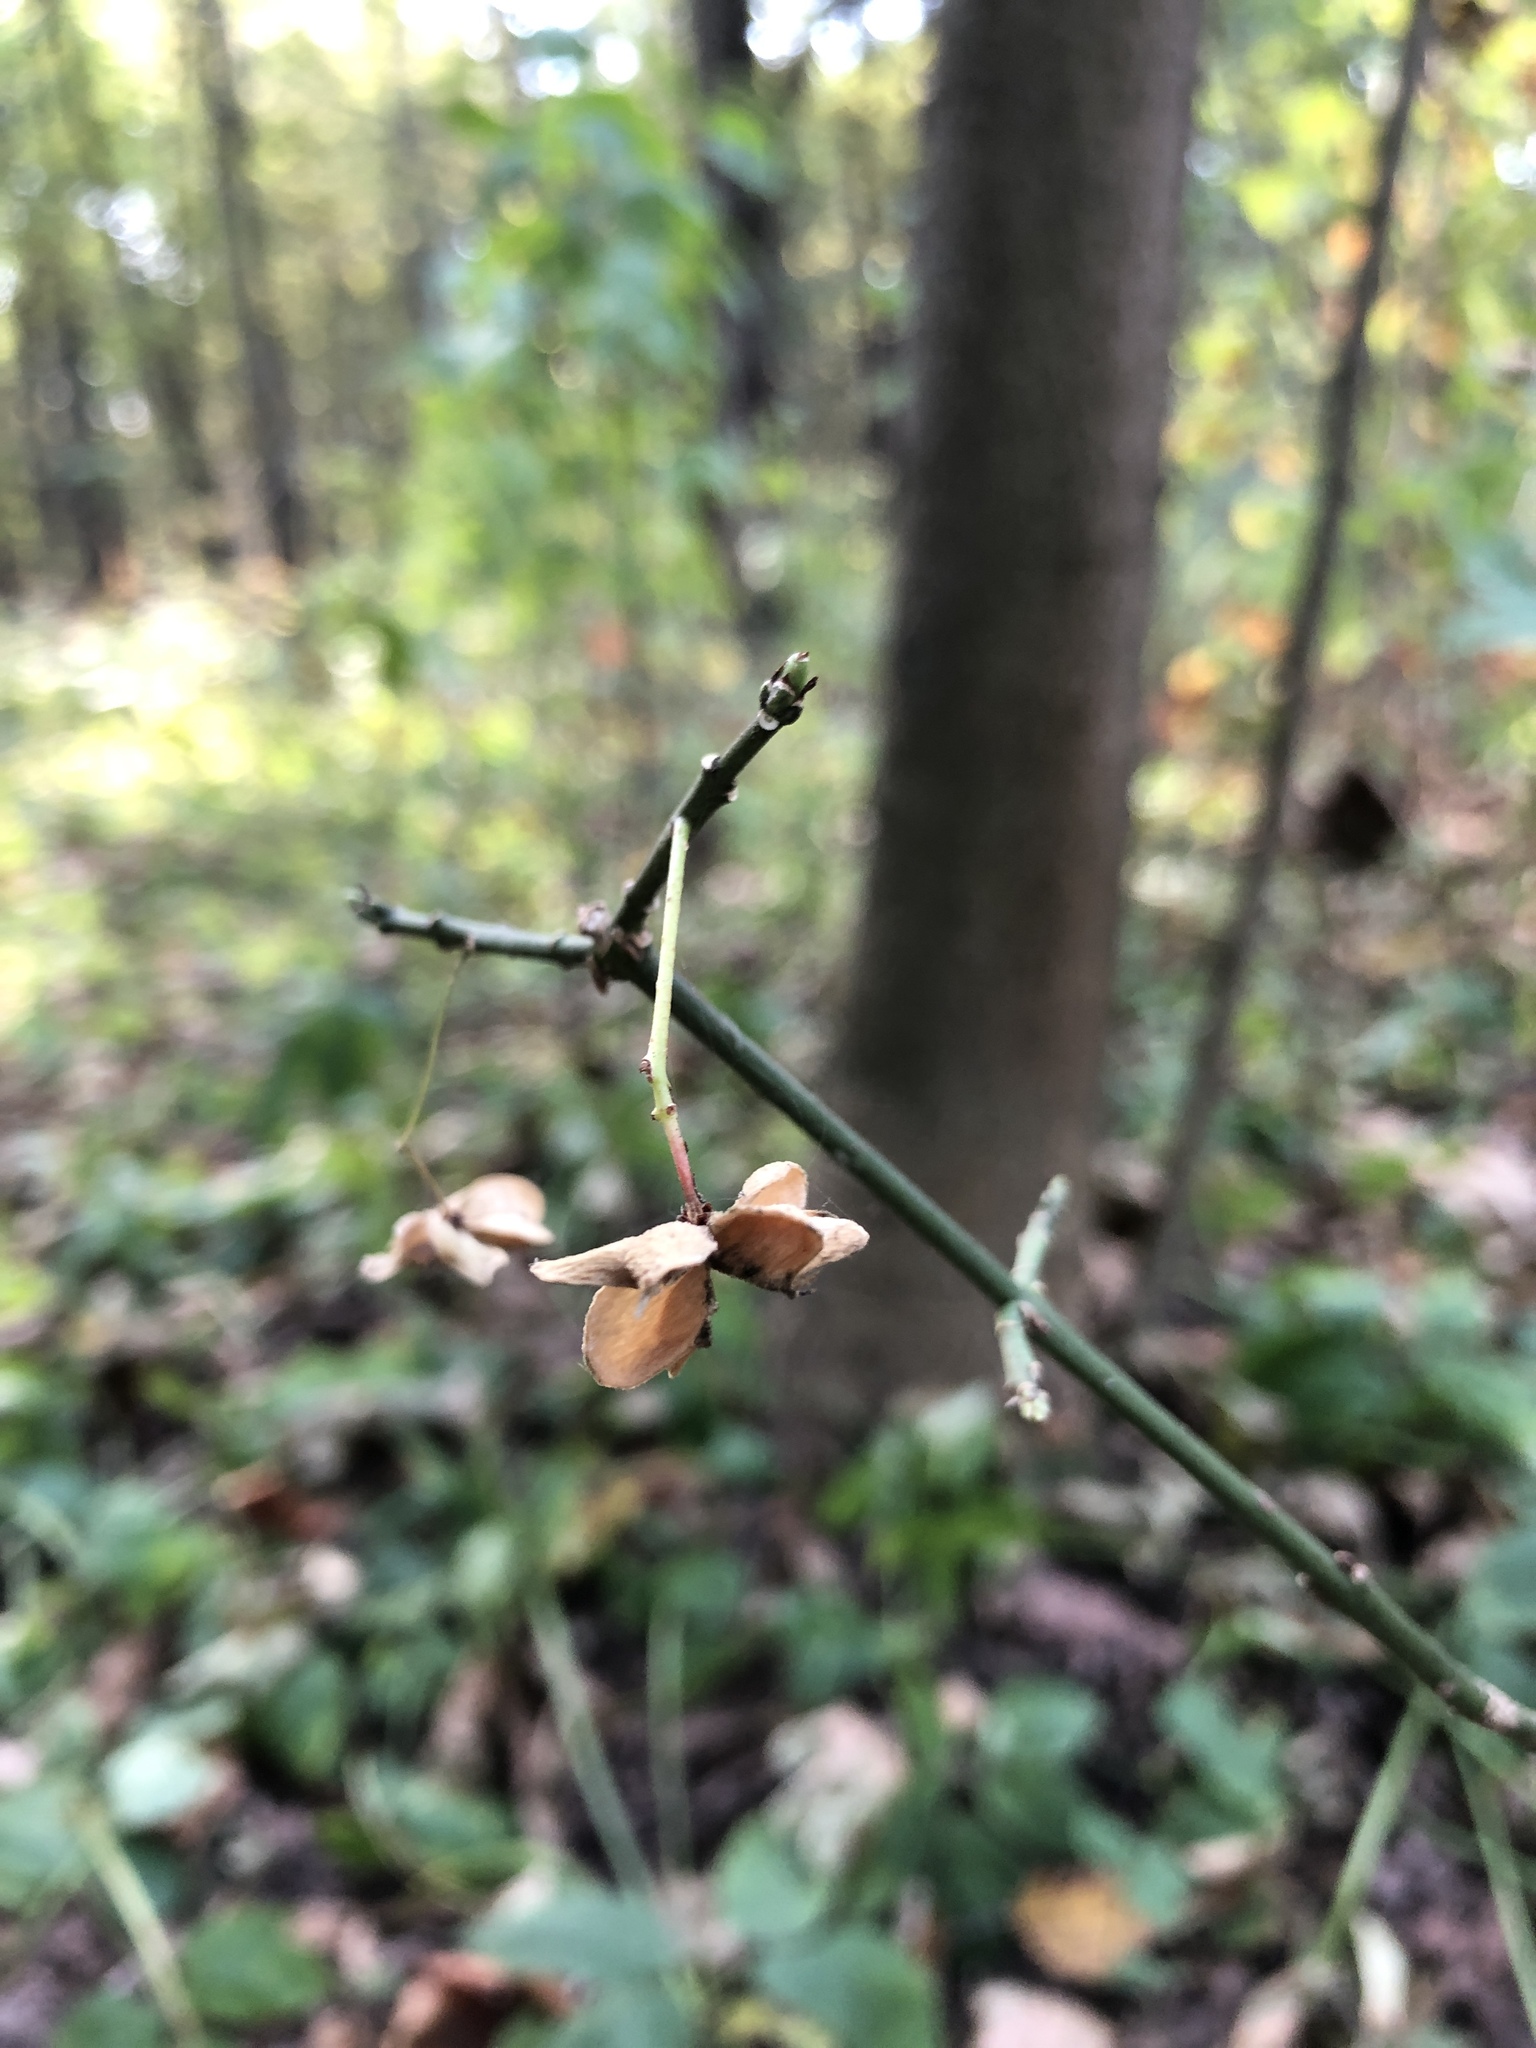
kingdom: Plantae
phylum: Tracheophyta
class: Magnoliopsida
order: Celastrales
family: Celastraceae
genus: Euonymus
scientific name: Euonymus europaeus
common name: Spindle
